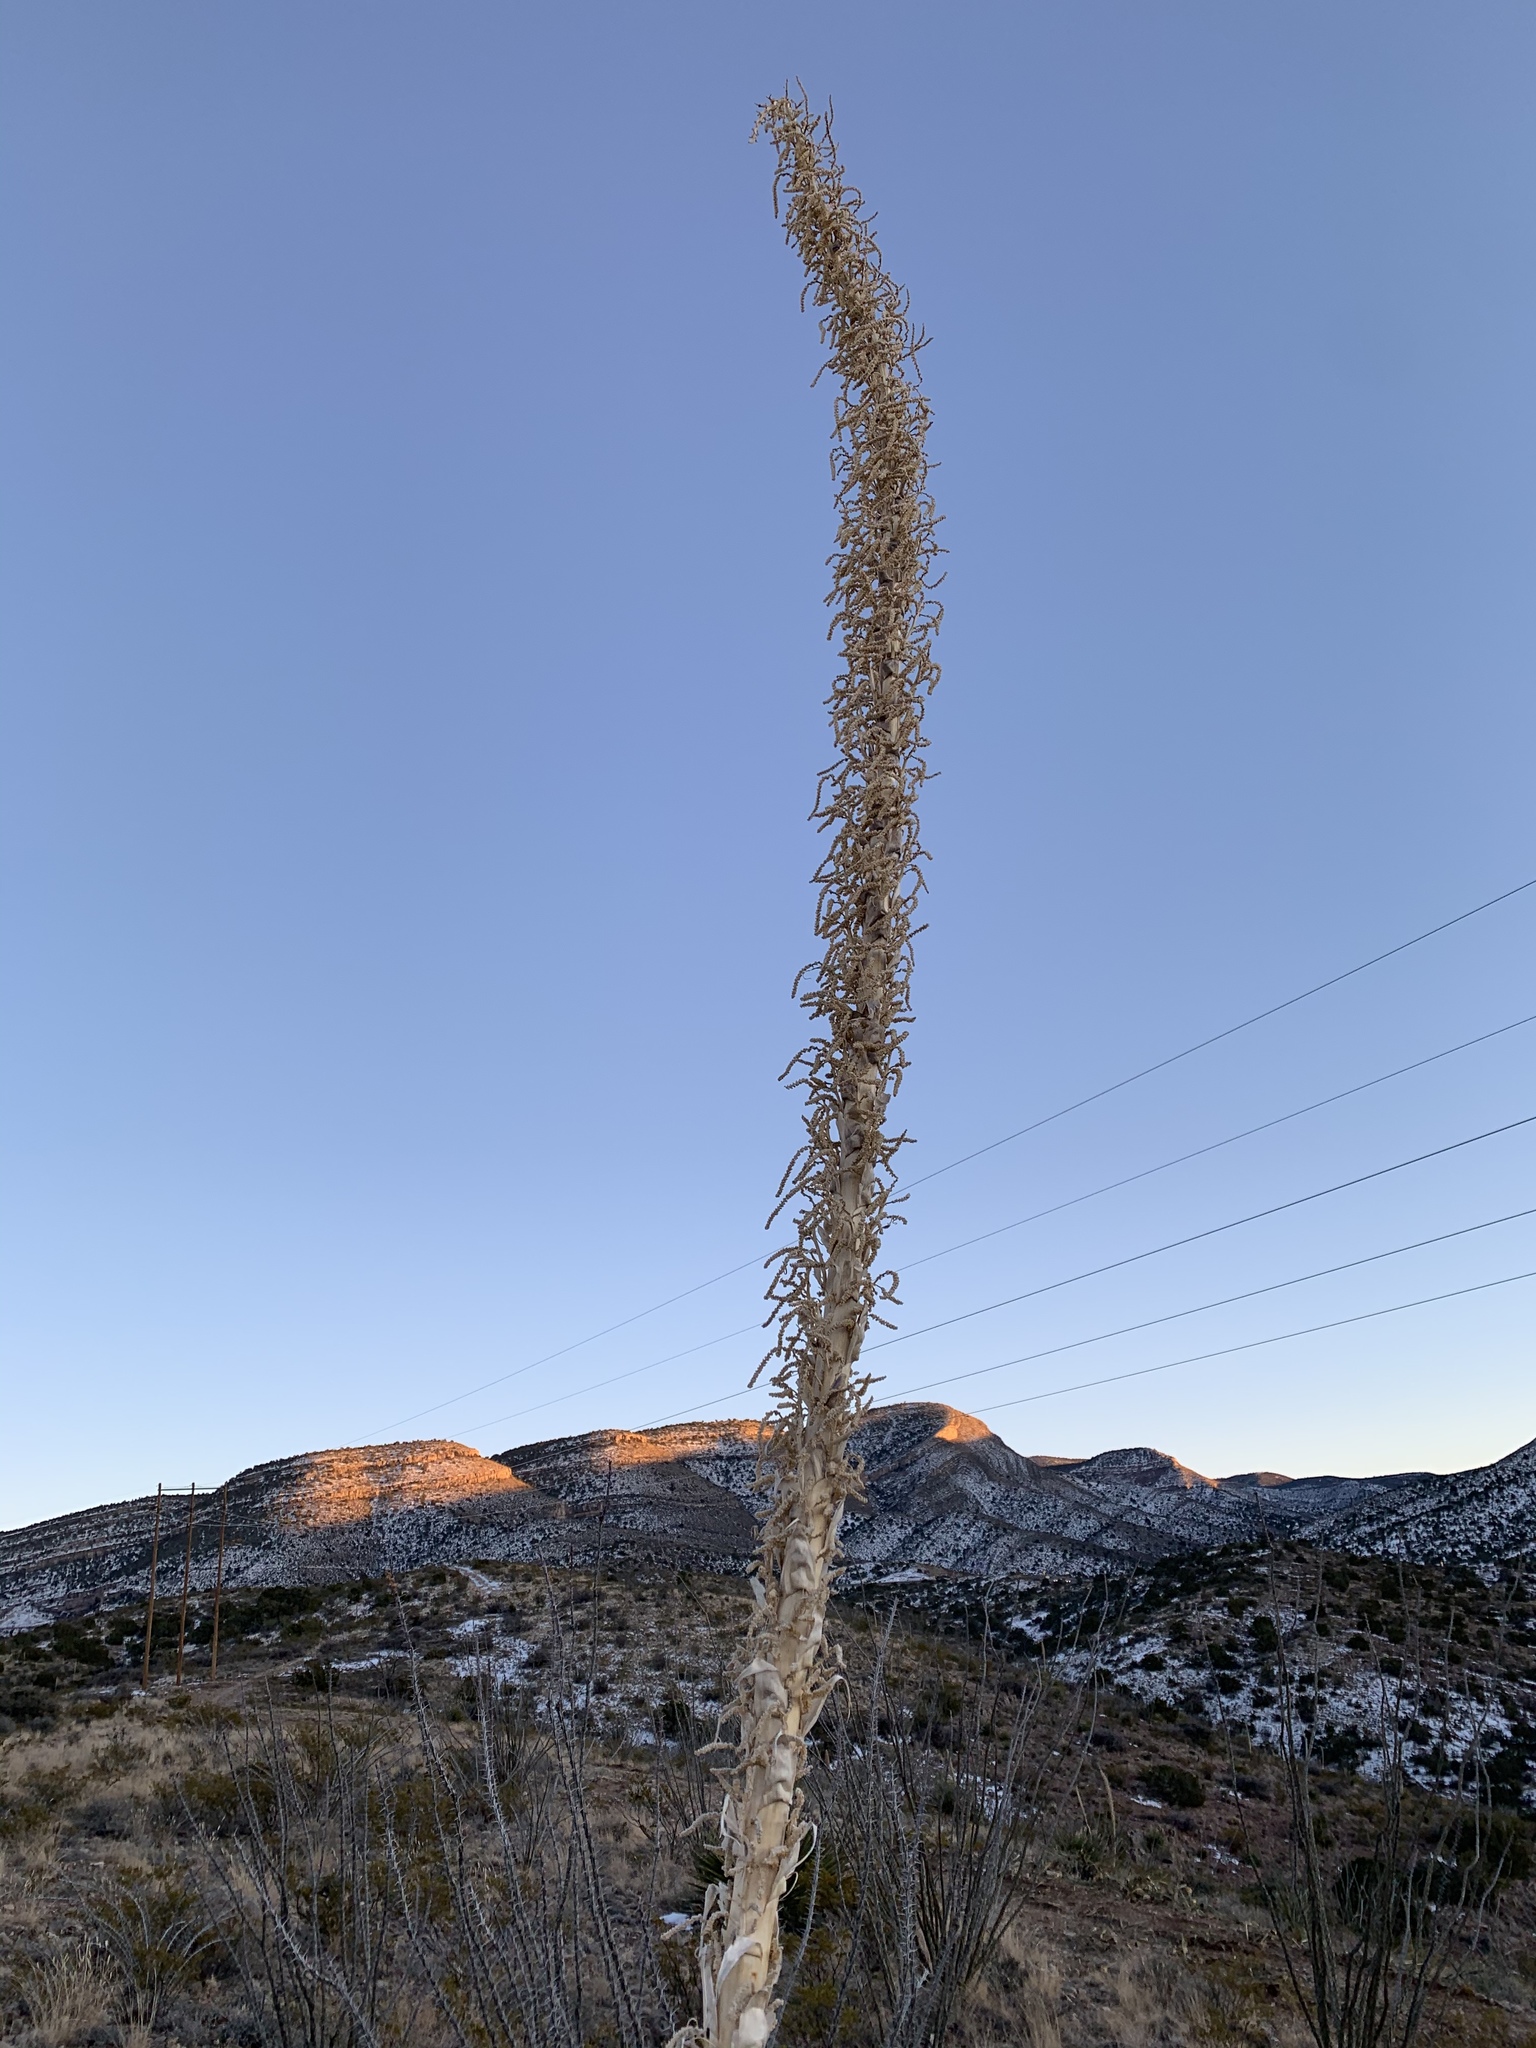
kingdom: Plantae
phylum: Tracheophyta
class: Liliopsida
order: Asparagales
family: Asparagaceae
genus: Dasylirion
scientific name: Dasylirion wheeleri
